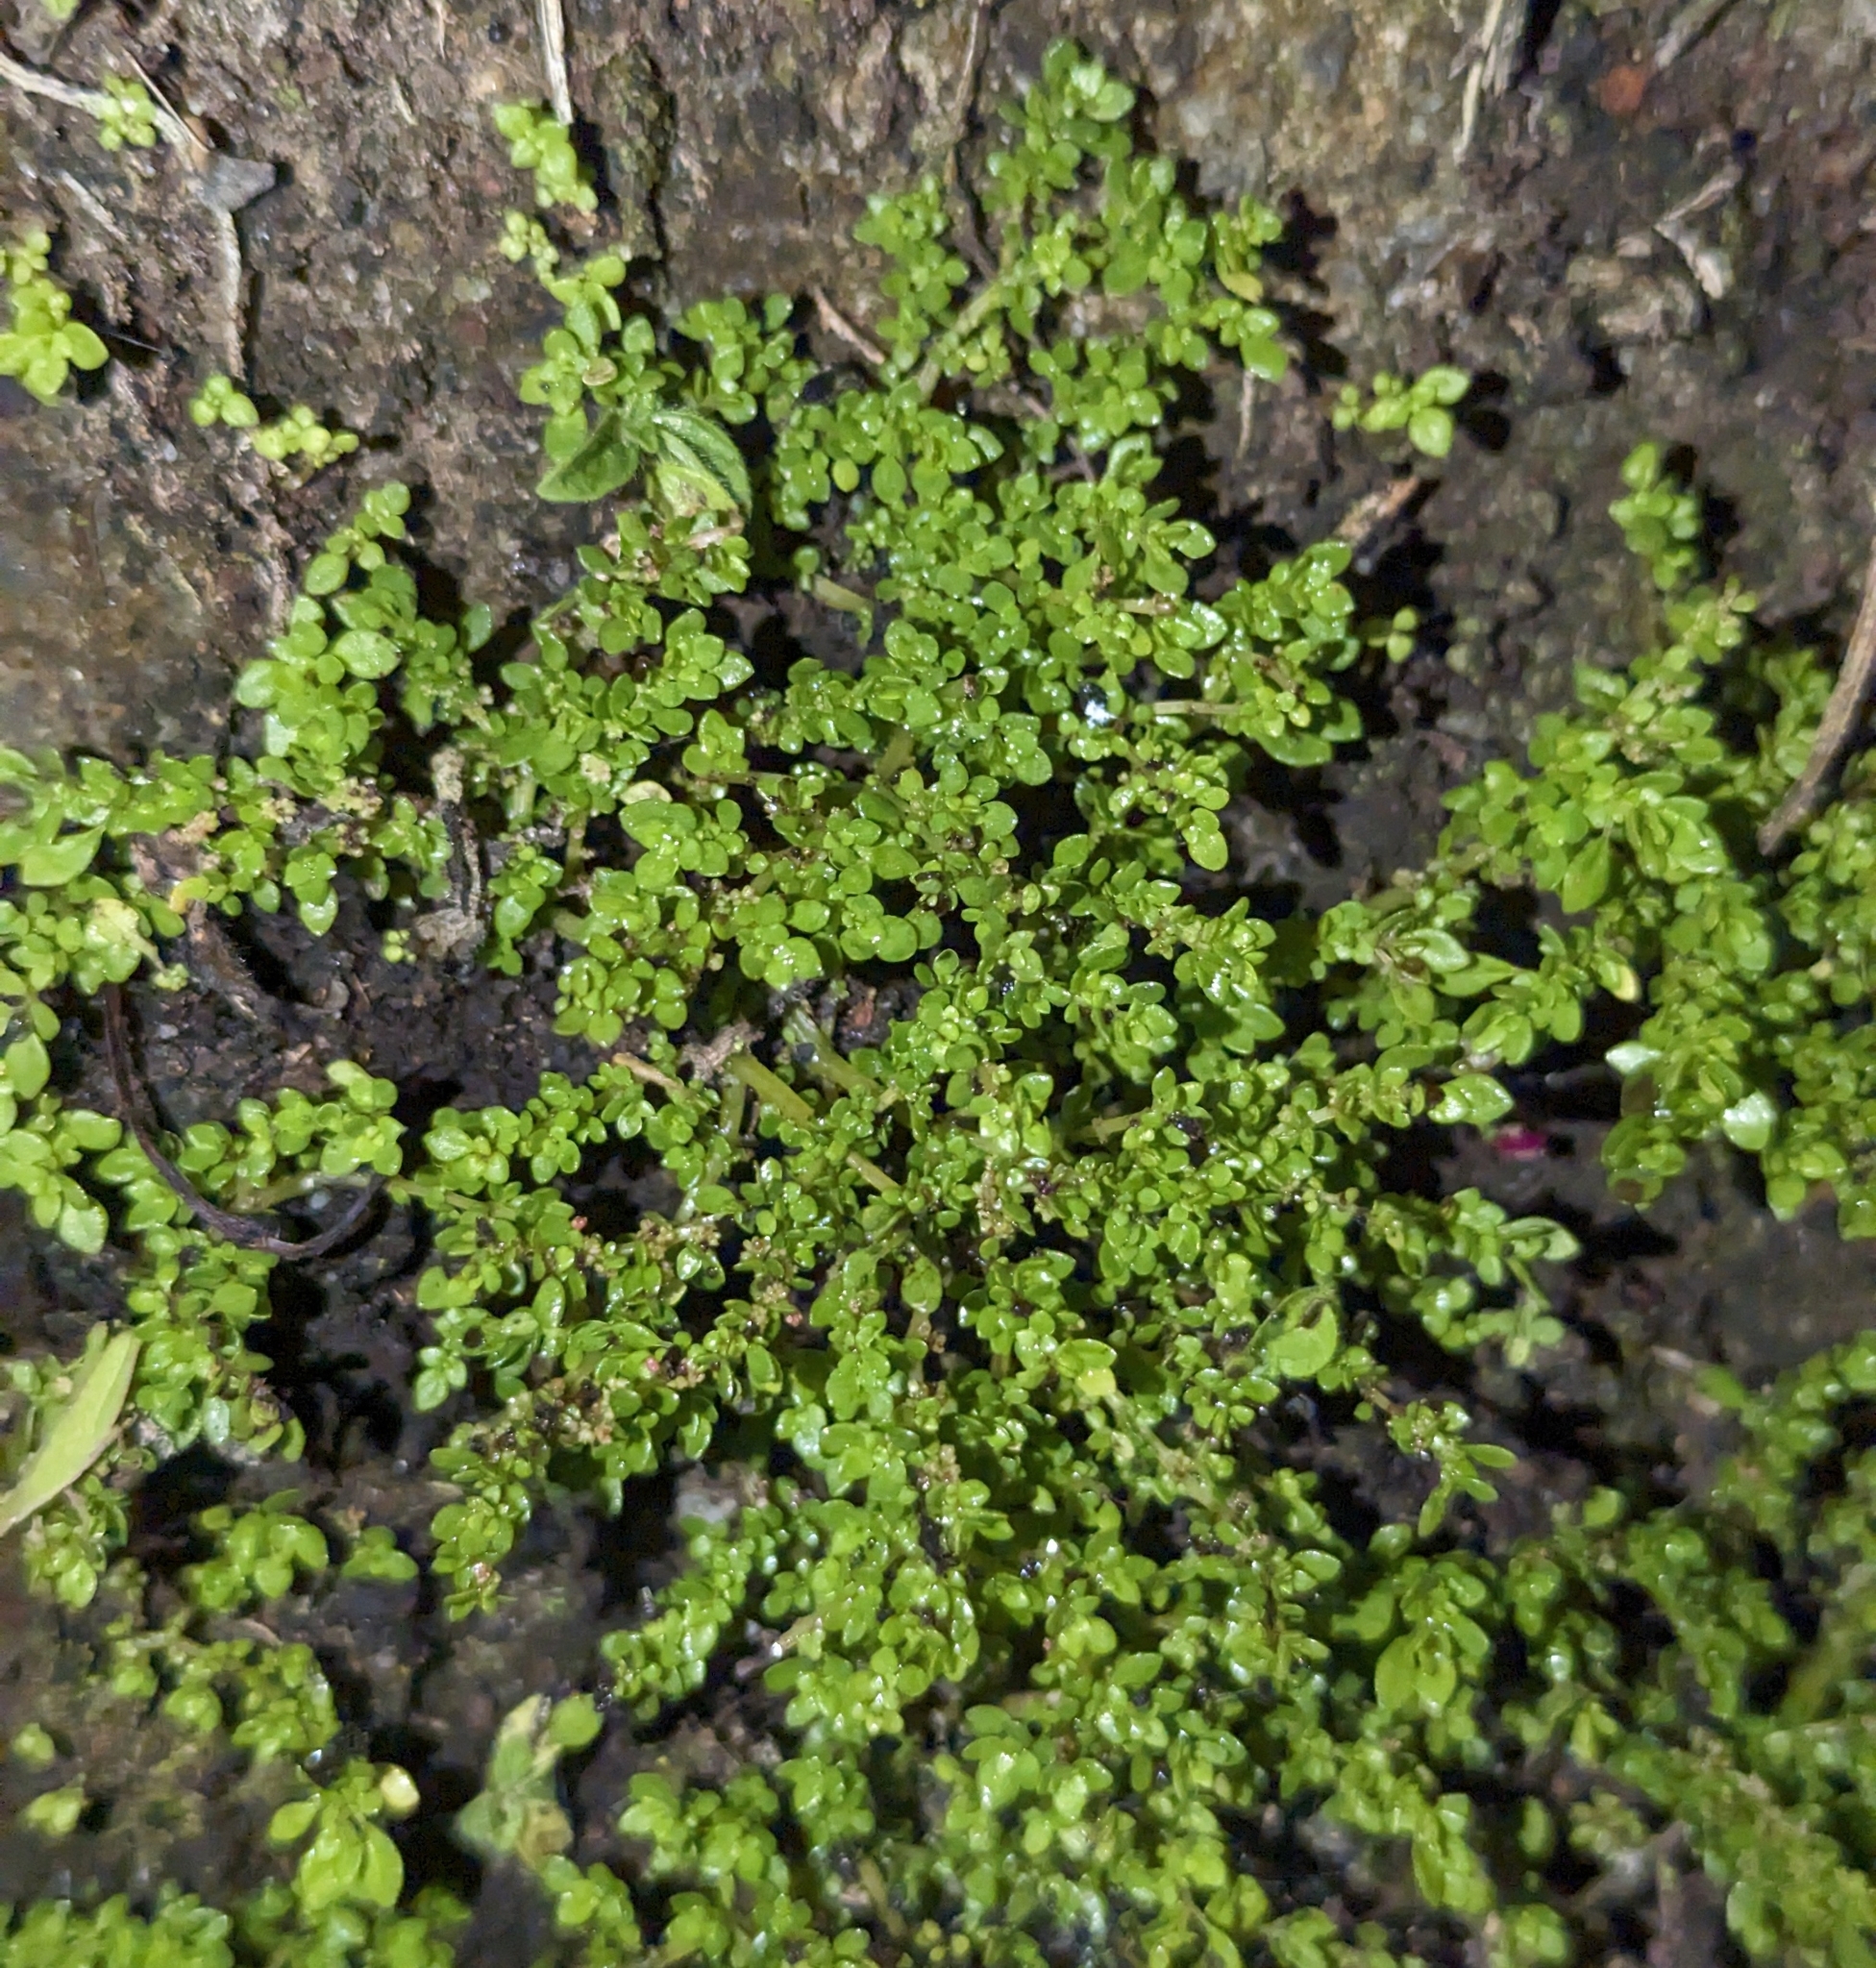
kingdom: Plantae
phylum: Tracheophyta
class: Magnoliopsida
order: Rosales
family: Urticaceae
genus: Pilea
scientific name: Pilea microphylla
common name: Artillery-plant
